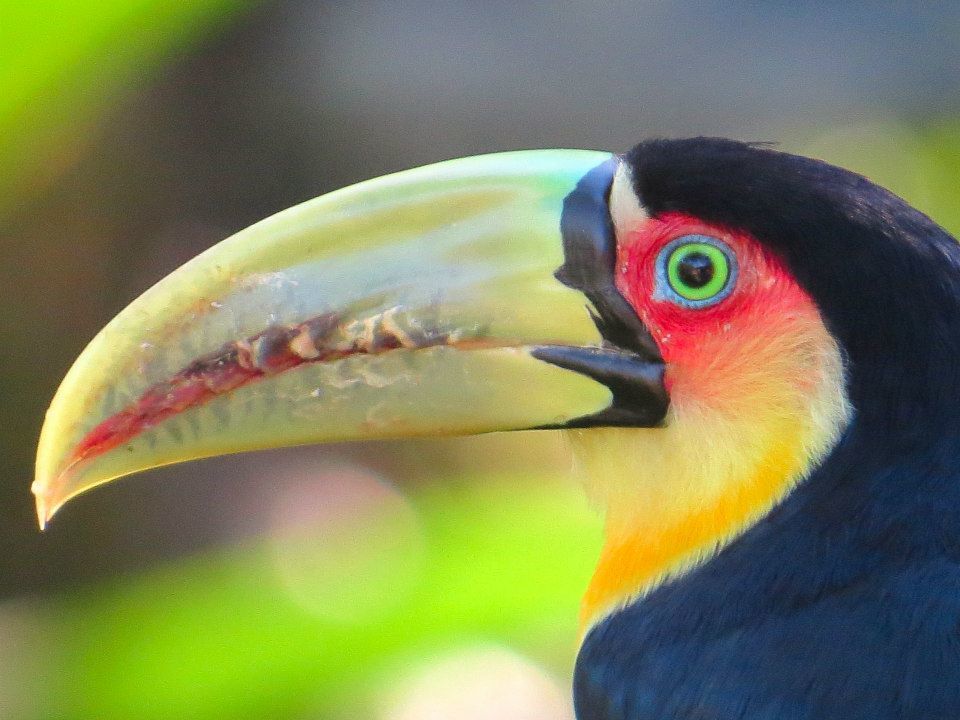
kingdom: Animalia
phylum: Chordata
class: Aves
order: Piciformes
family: Ramphastidae
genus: Ramphastos
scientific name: Ramphastos dicolorus
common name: Green-billed toucan
